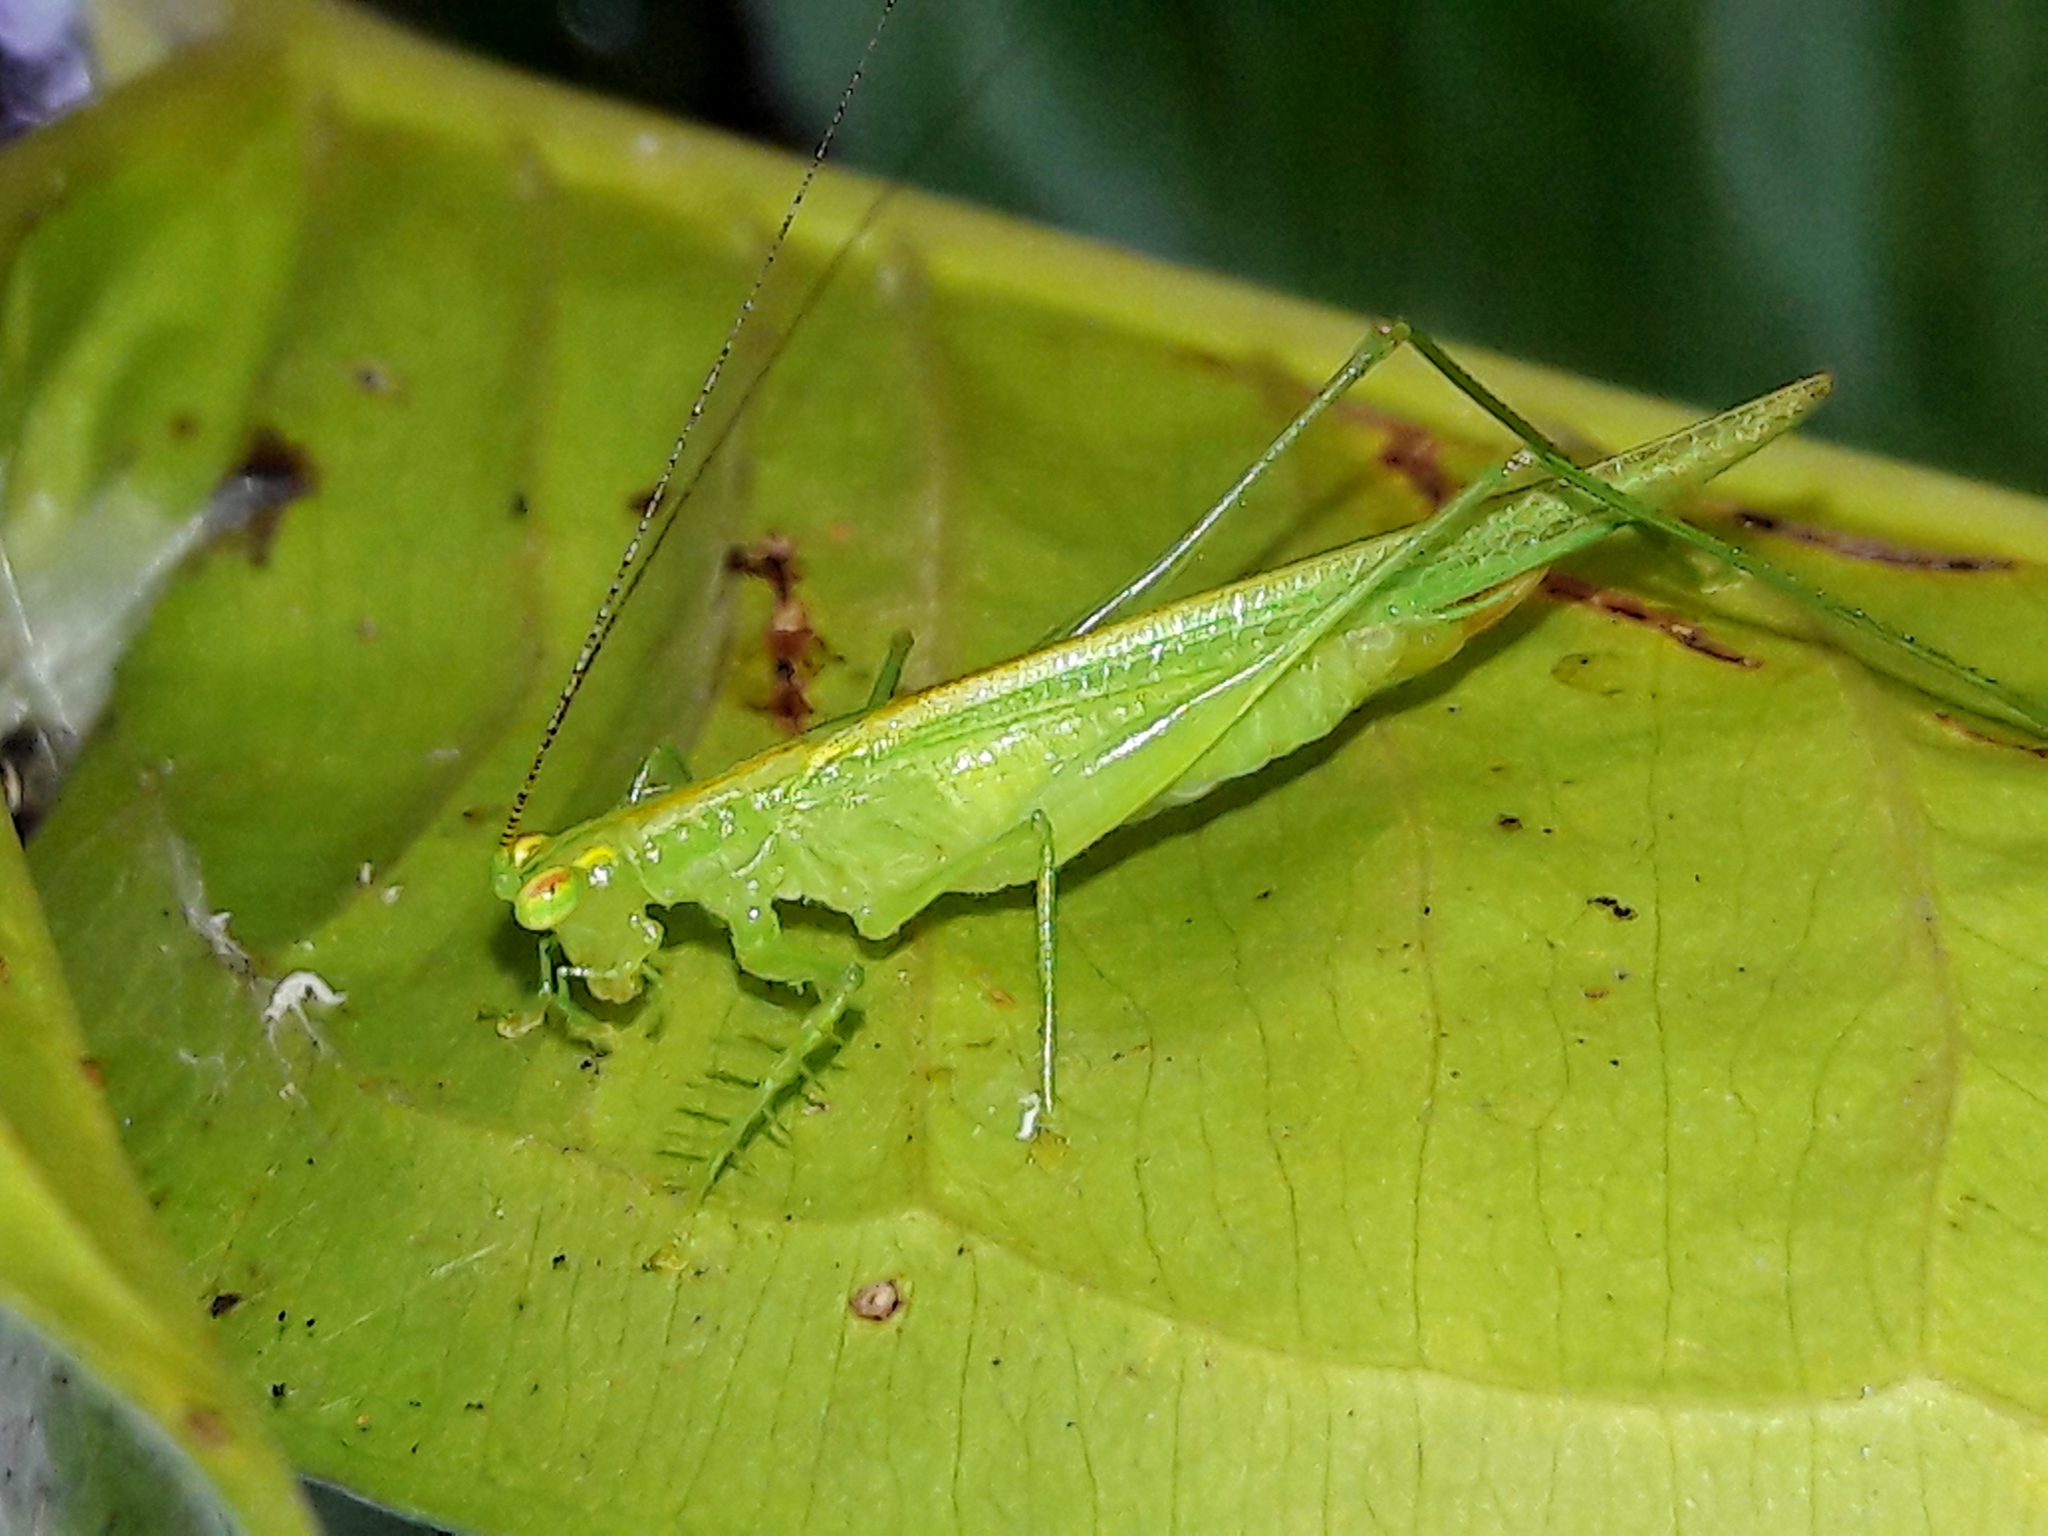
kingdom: Animalia
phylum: Arthropoda
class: Insecta
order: Orthoptera
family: Tettigoniidae
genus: Phlugis
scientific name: Phlugis ocraceovittata
